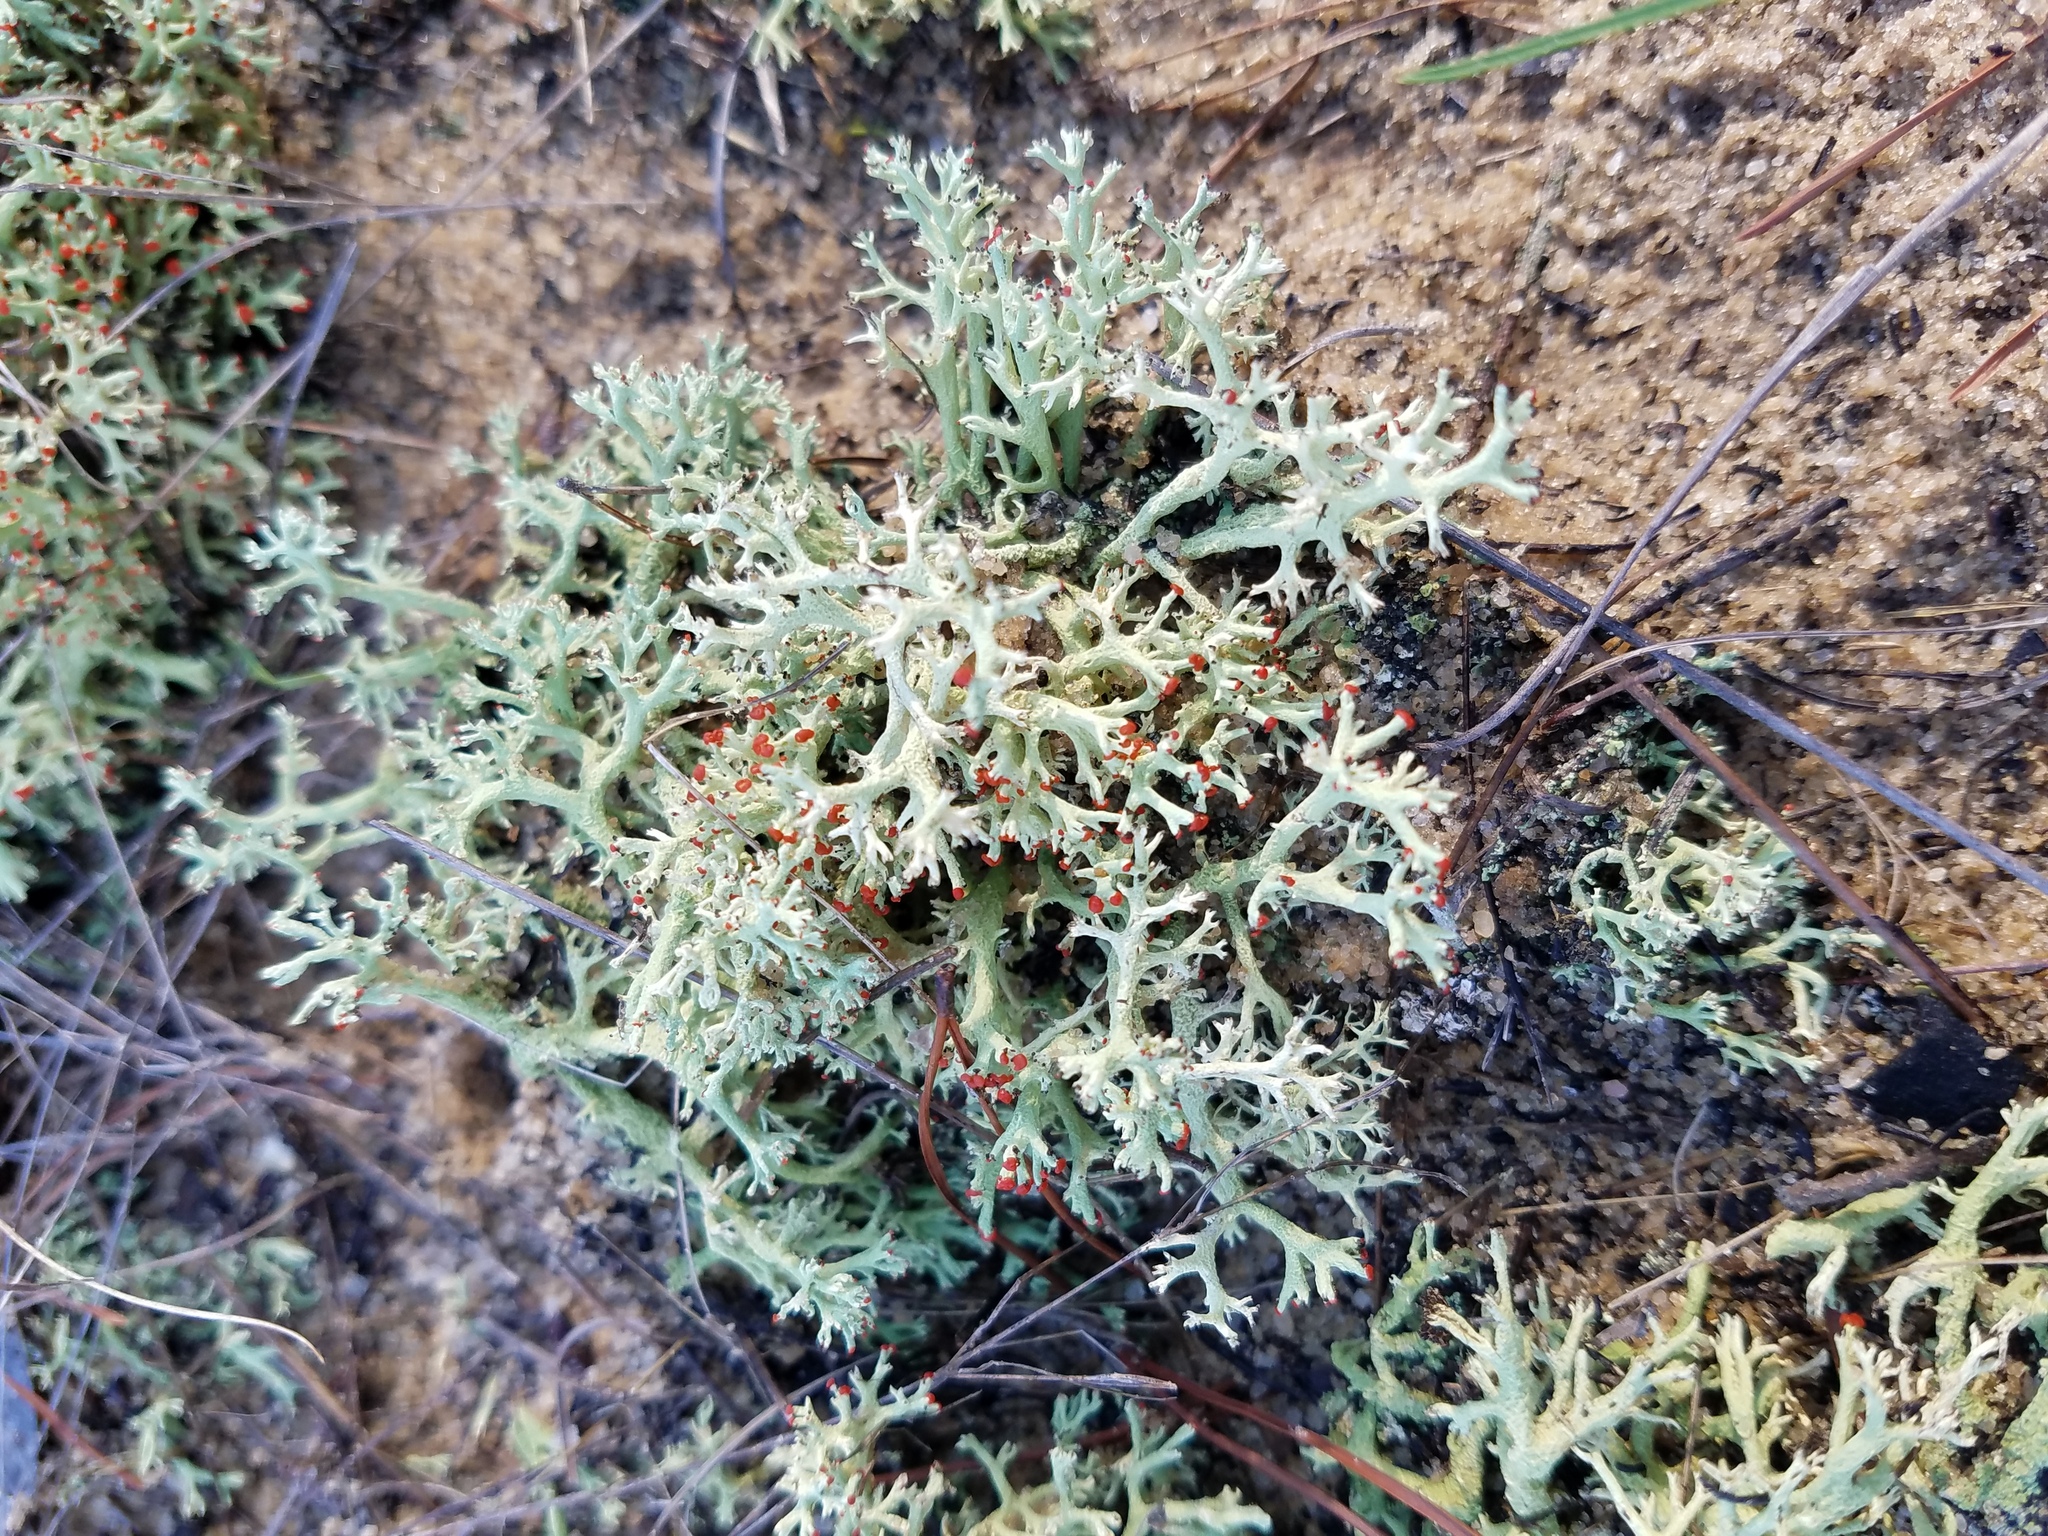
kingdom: Fungi
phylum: Ascomycota
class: Lecanoromycetes
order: Lecanorales
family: Cladoniaceae
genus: Cladonia
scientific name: Cladonia leporina
